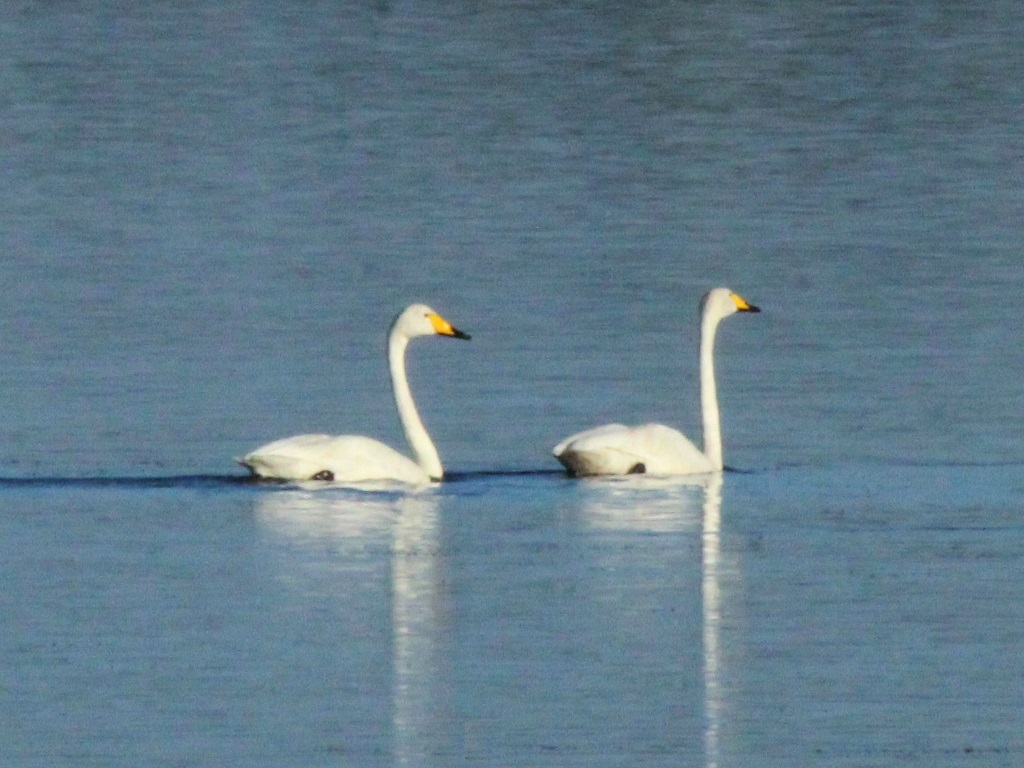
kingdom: Animalia
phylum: Chordata
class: Aves
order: Anseriformes
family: Anatidae
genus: Cygnus
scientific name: Cygnus cygnus
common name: Whooper swan
